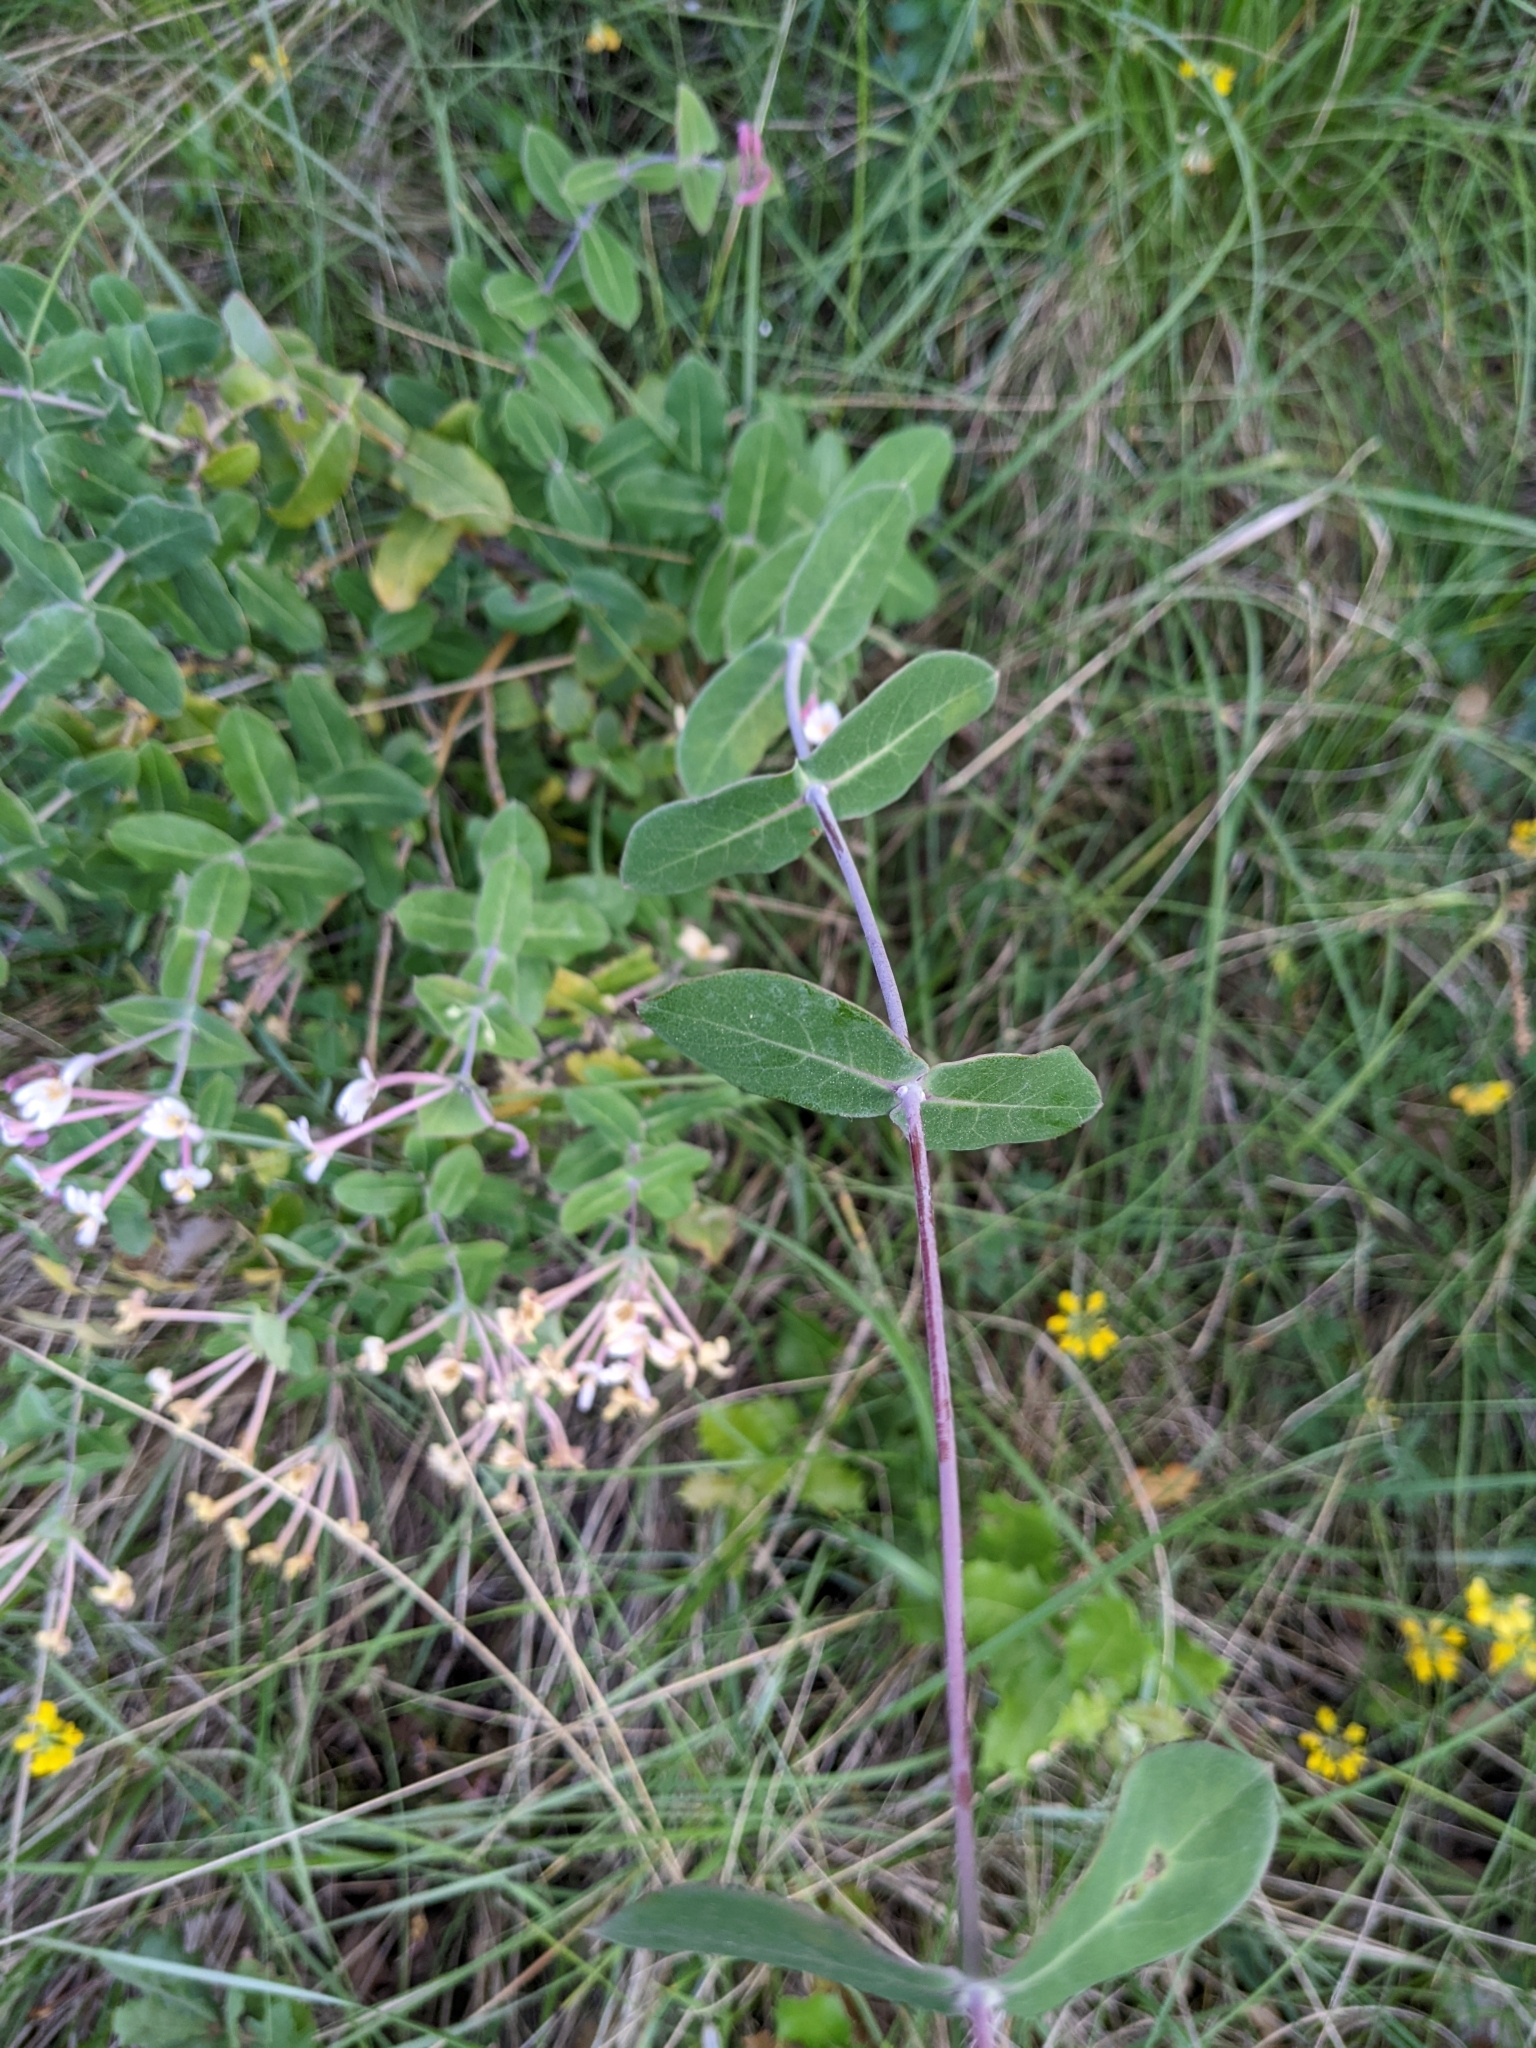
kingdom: Plantae
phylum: Tracheophyta
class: Magnoliopsida
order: Dipsacales
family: Caprifoliaceae
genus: Lonicera
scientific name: Lonicera implexa
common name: Minorca honeysuckle
